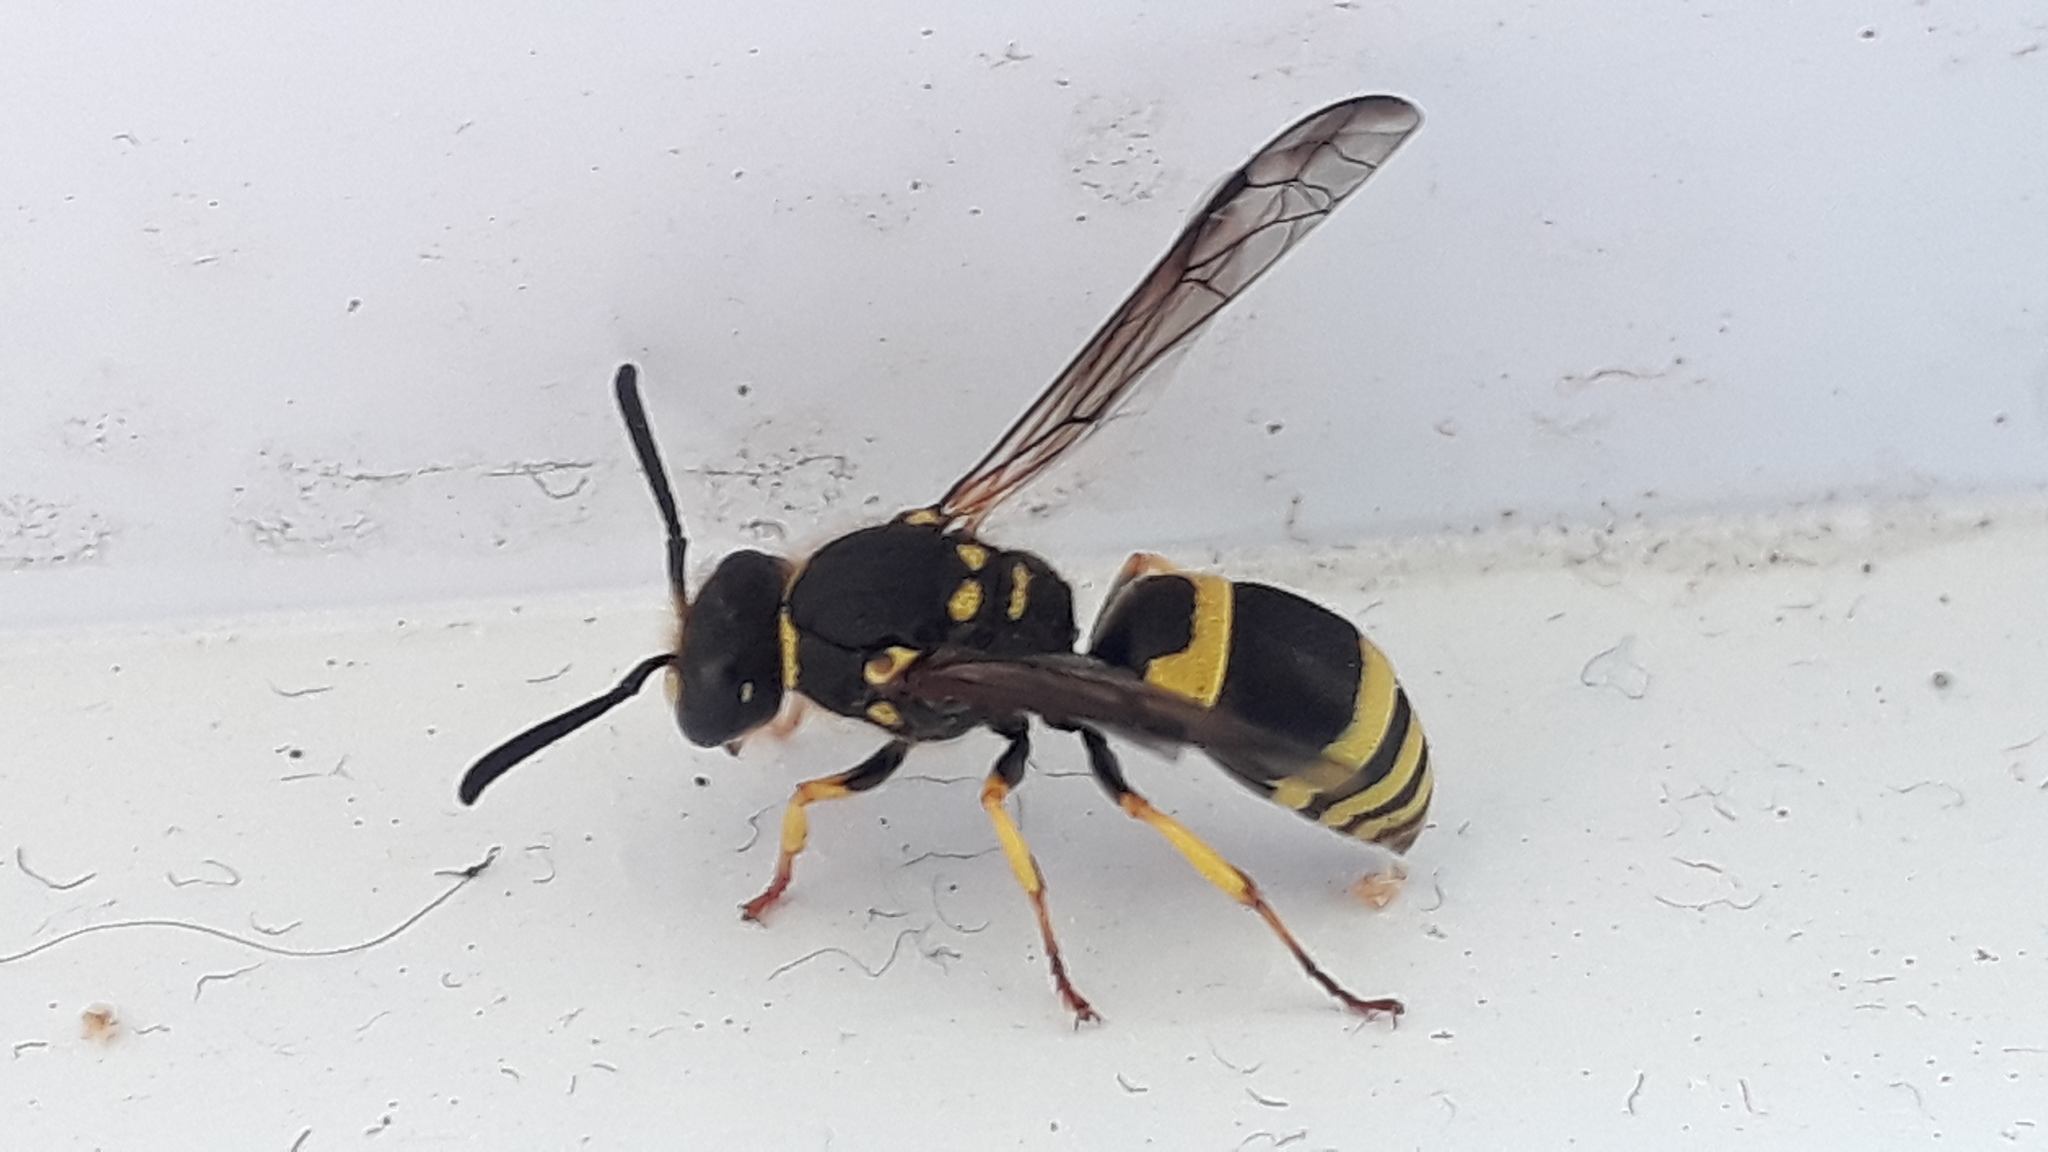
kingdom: Animalia
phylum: Arthropoda
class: Insecta
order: Hymenoptera
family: Vespidae
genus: Ancistrocerus
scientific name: Ancistrocerus gazella
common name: European tube wasp
